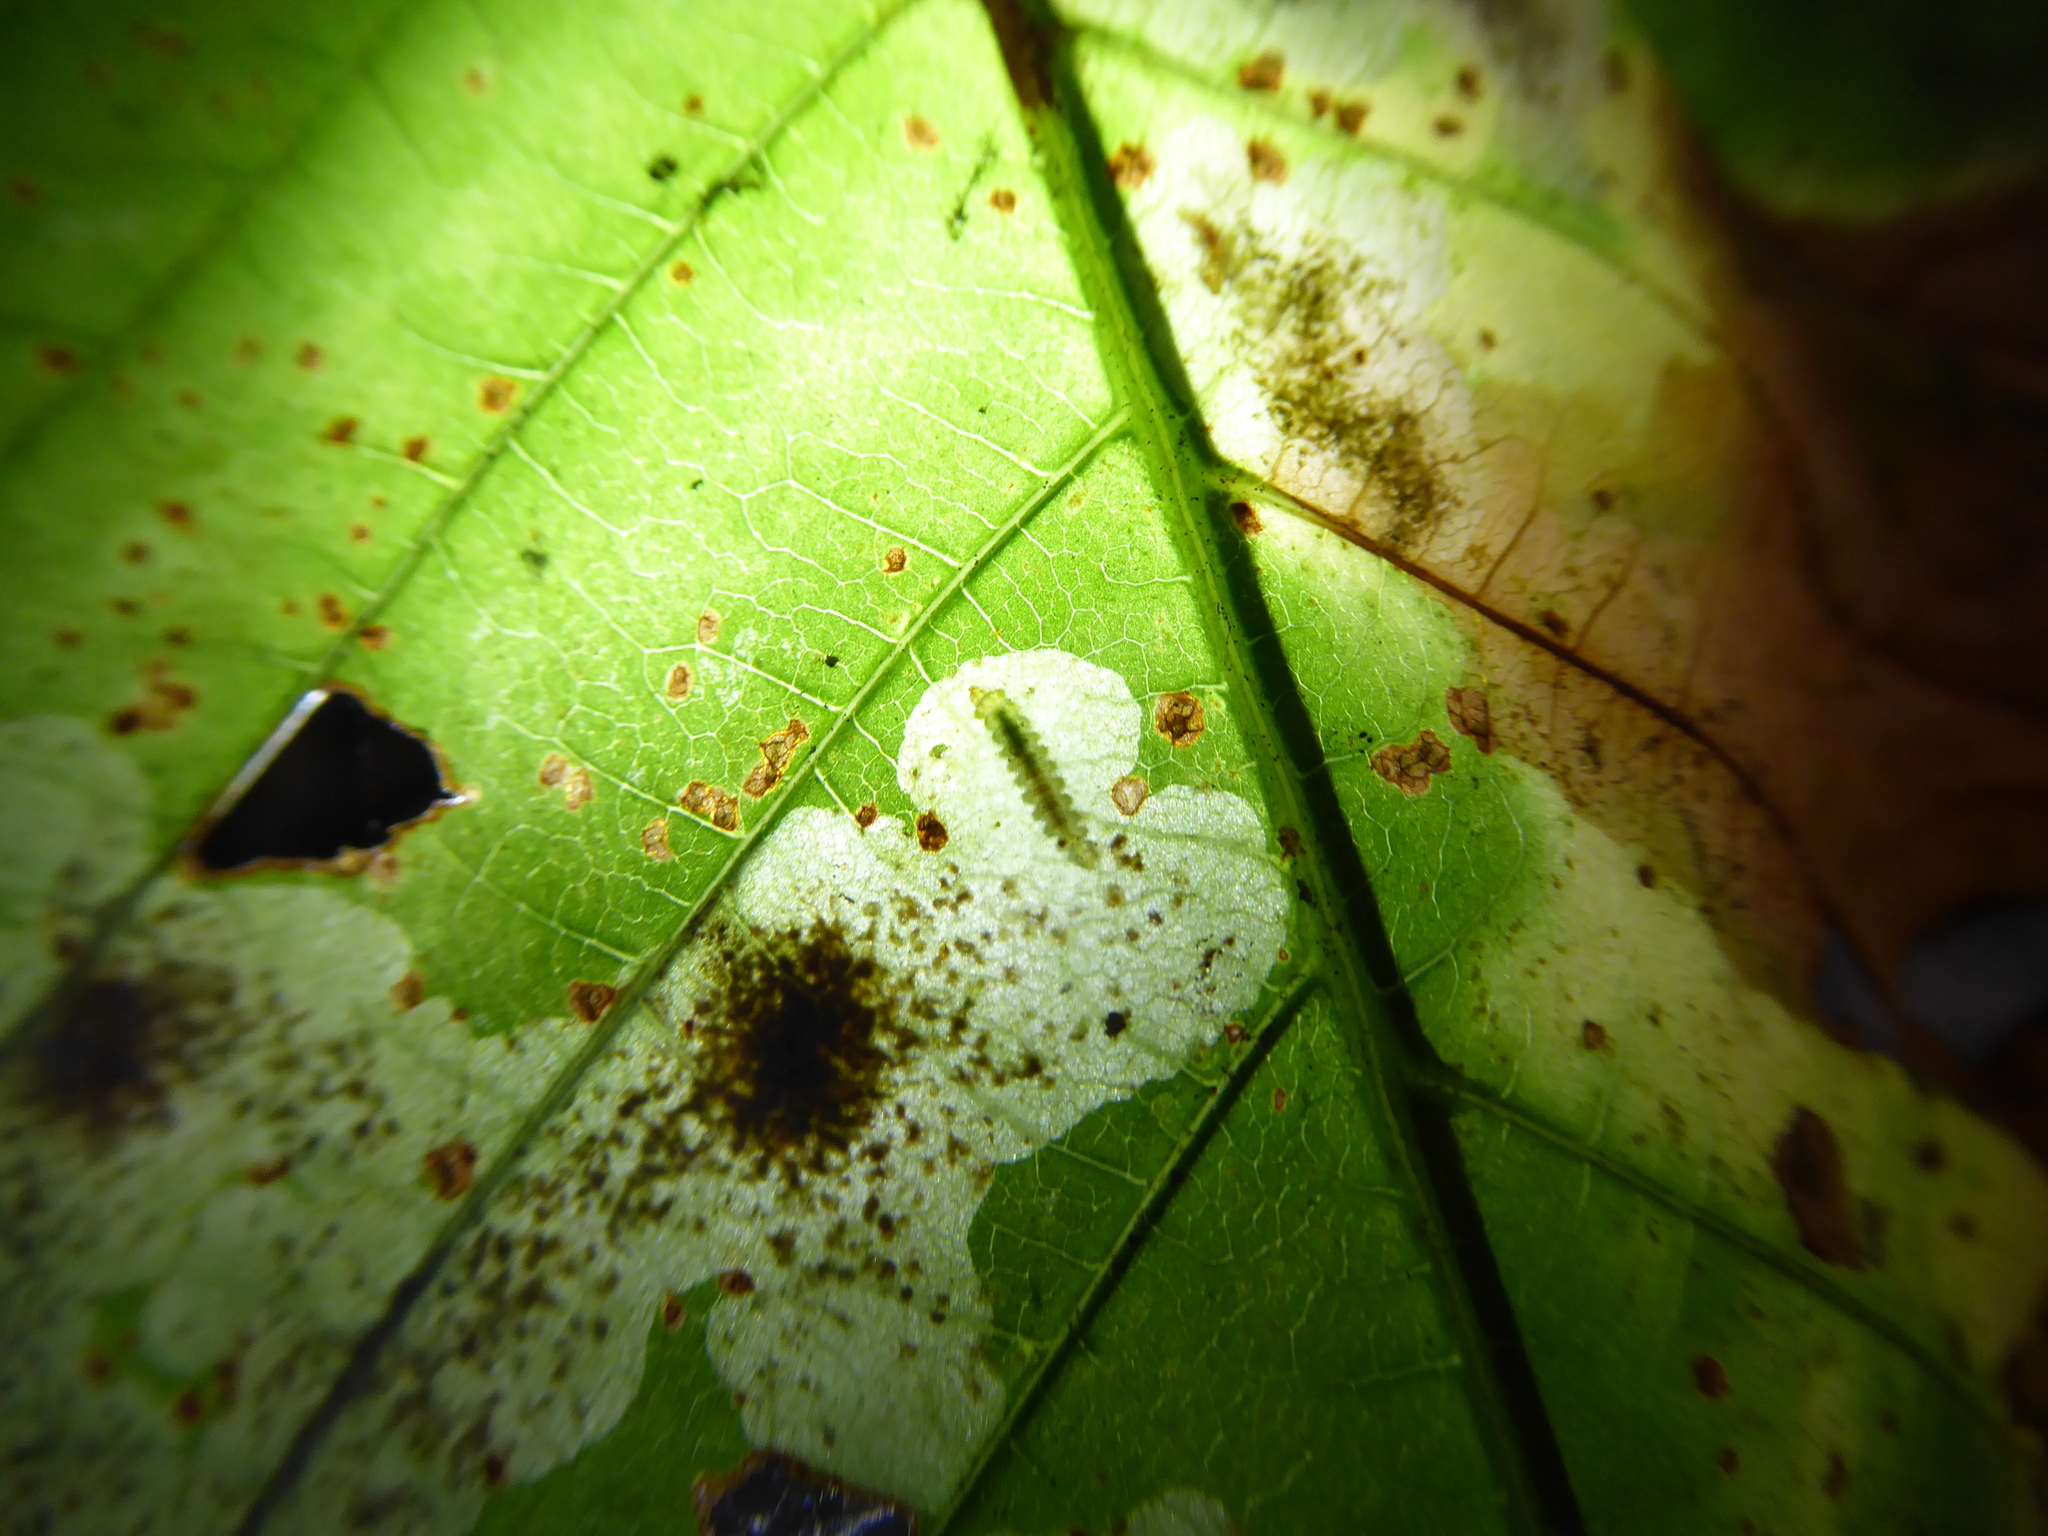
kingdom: Animalia
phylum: Arthropoda
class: Insecta
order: Lepidoptera
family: Gracillariidae
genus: Cameraria
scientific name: Cameraria ohridella
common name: Horse-chestnut leaf-miner
